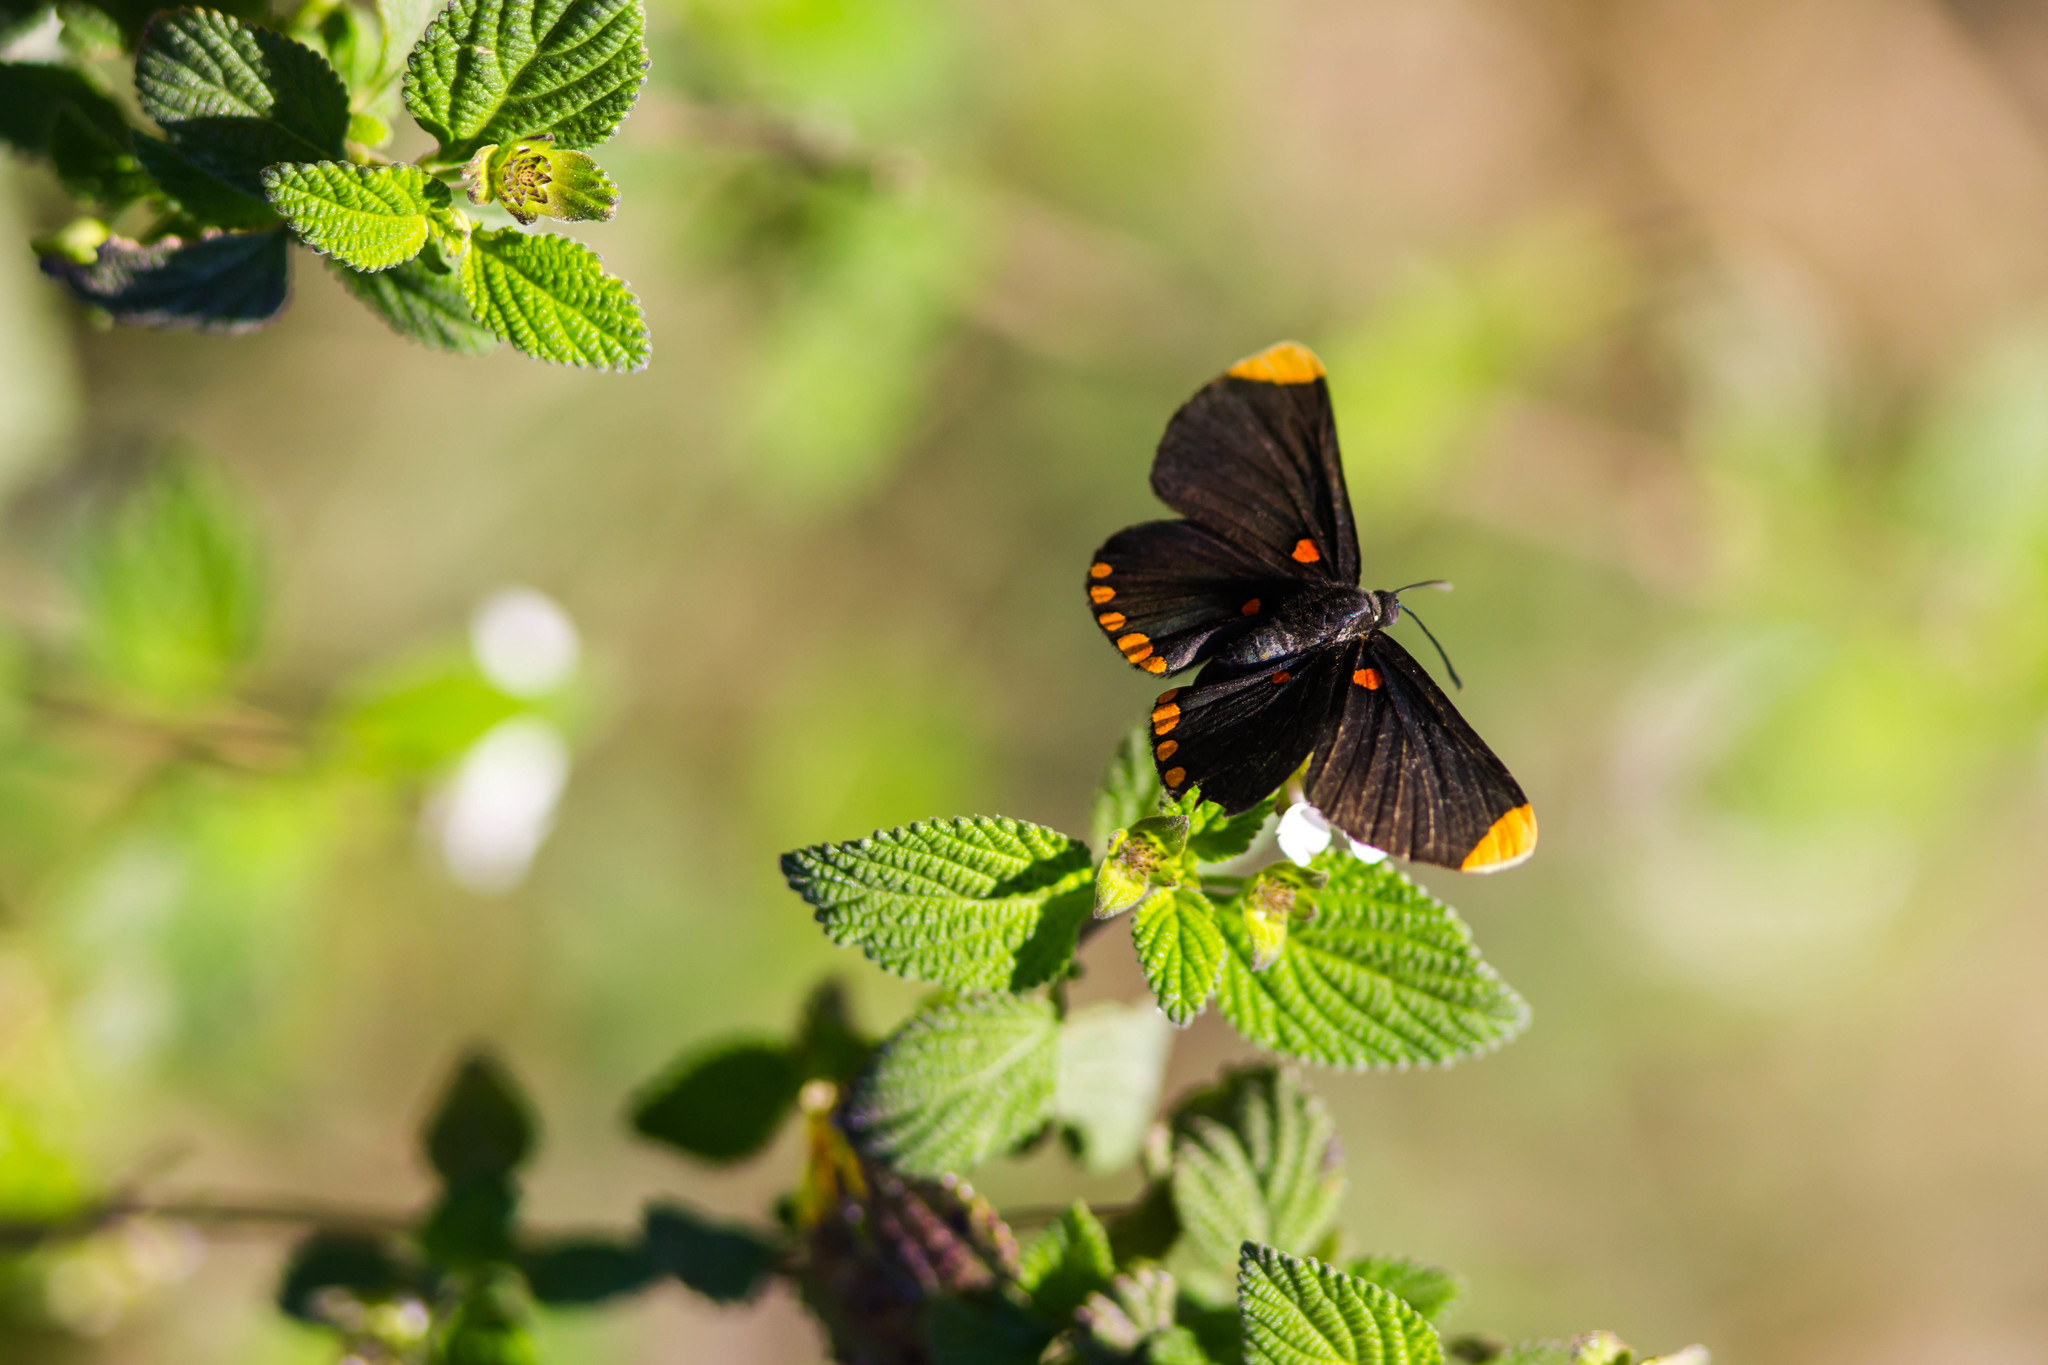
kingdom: Animalia
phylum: Arthropoda
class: Insecta
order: Lepidoptera
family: Lycaenidae
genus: Melanis
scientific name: Melanis pixe
